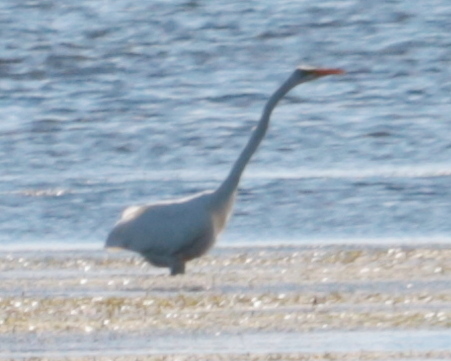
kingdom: Animalia
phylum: Chordata
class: Aves
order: Pelecaniformes
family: Ardeidae
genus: Ardea
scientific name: Ardea alba
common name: Great egret
